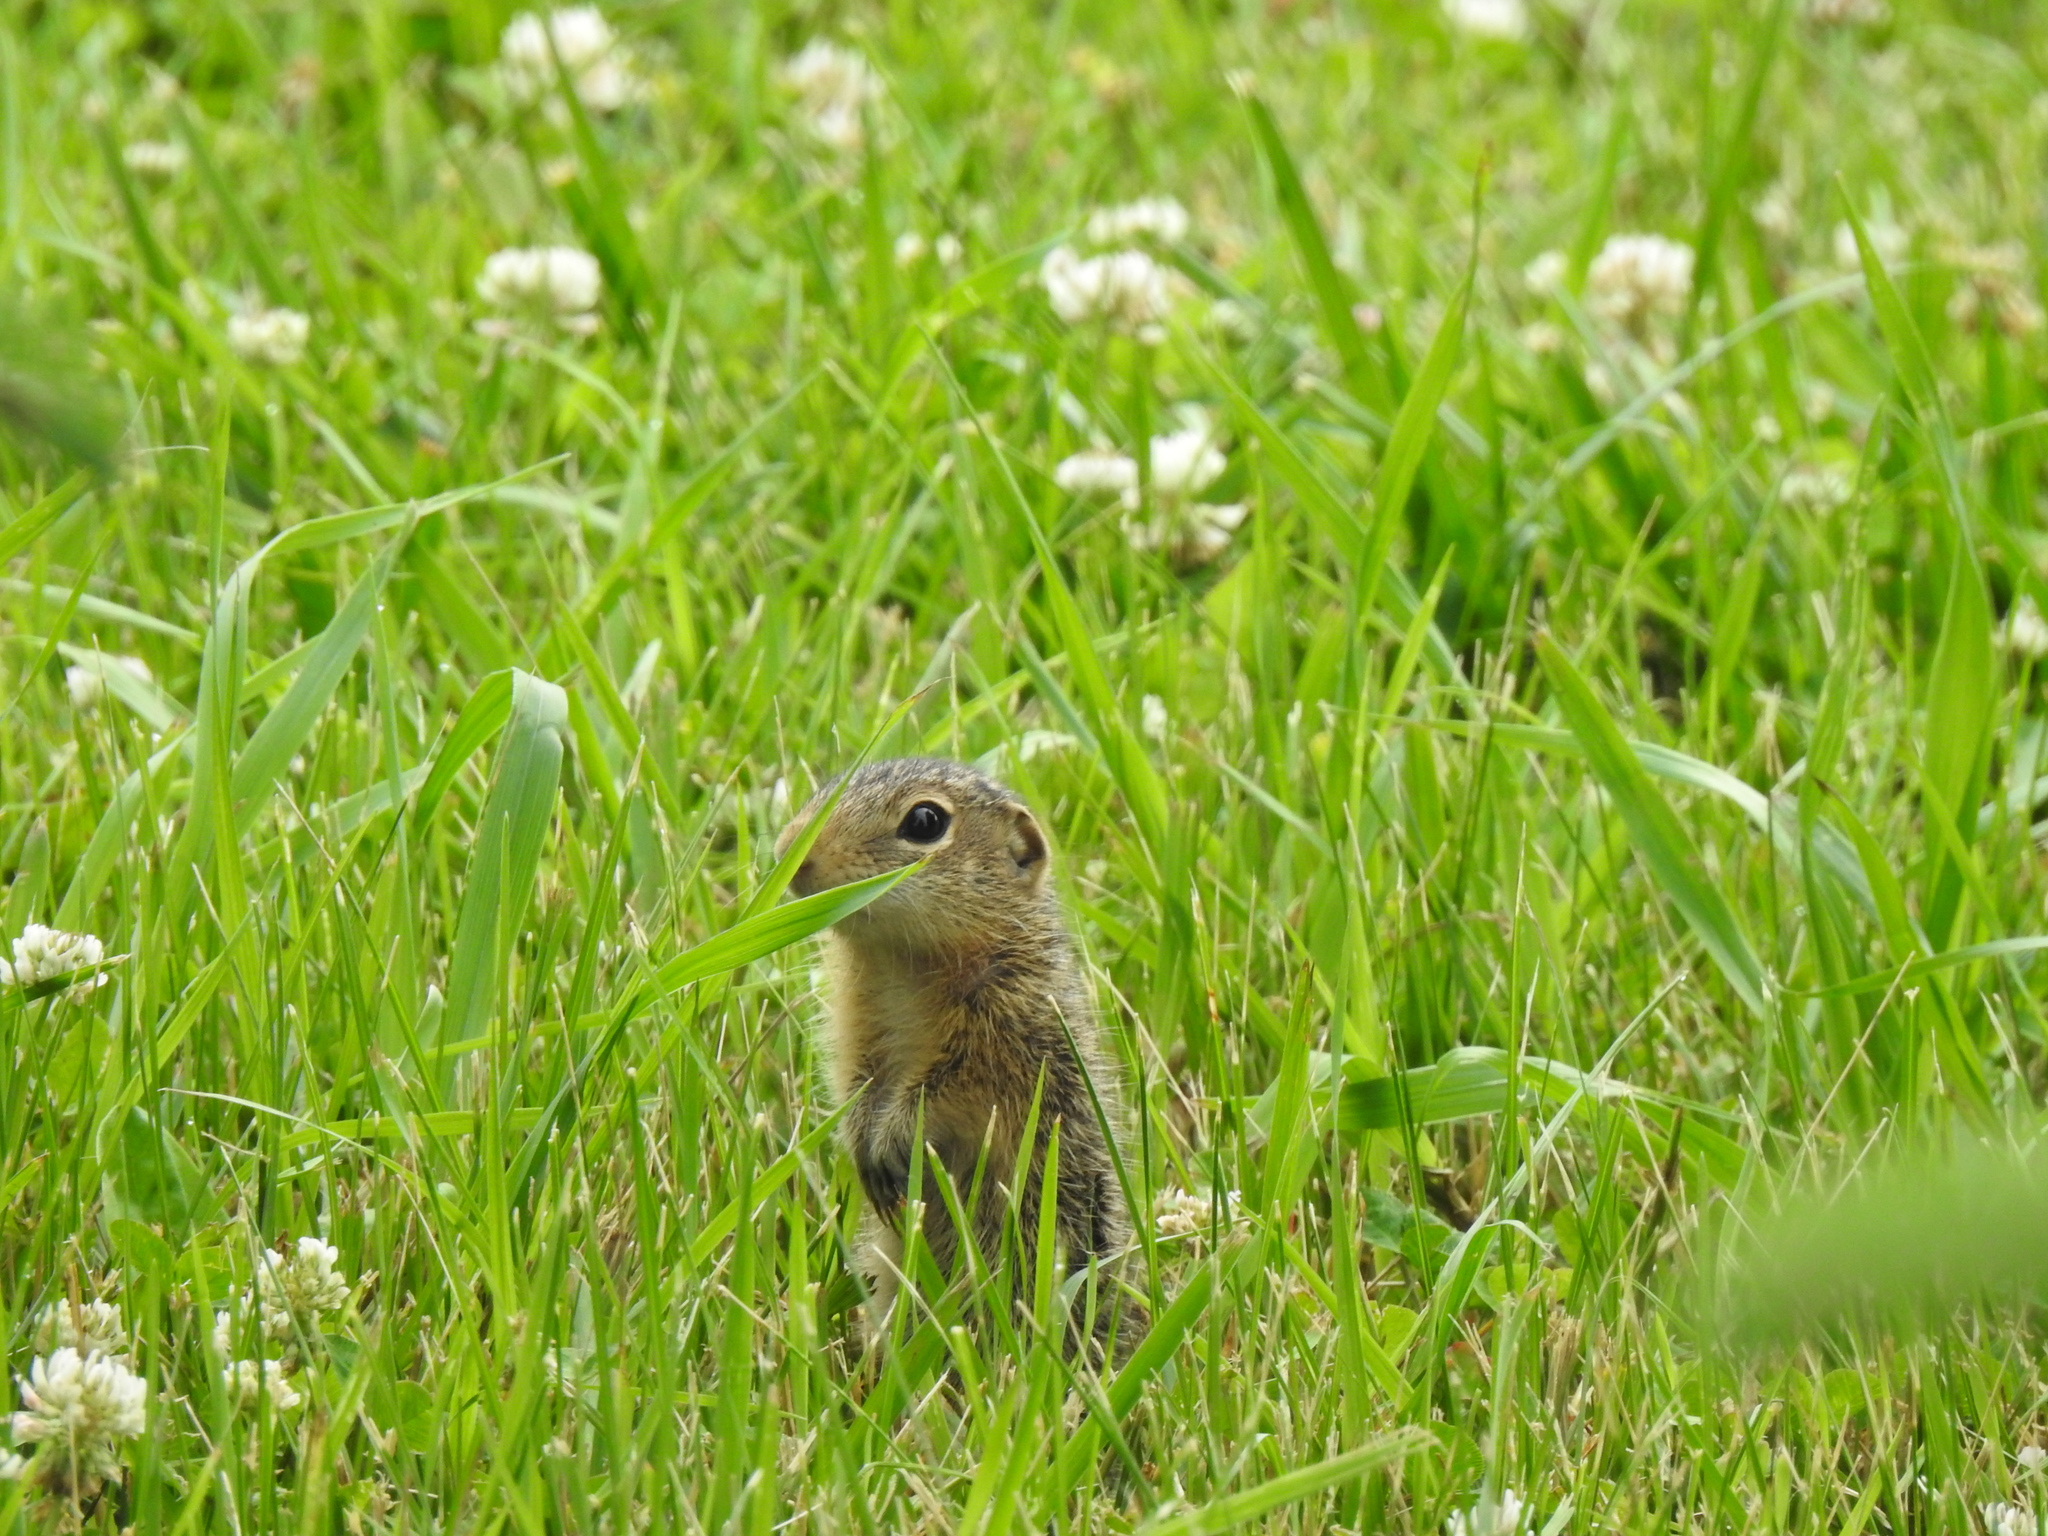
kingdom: Animalia
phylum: Chordata
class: Mammalia
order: Rodentia
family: Sciuridae
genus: Ictidomys
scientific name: Ictidomys tridecemlineatus
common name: Thirteen-lined ground squirrel
